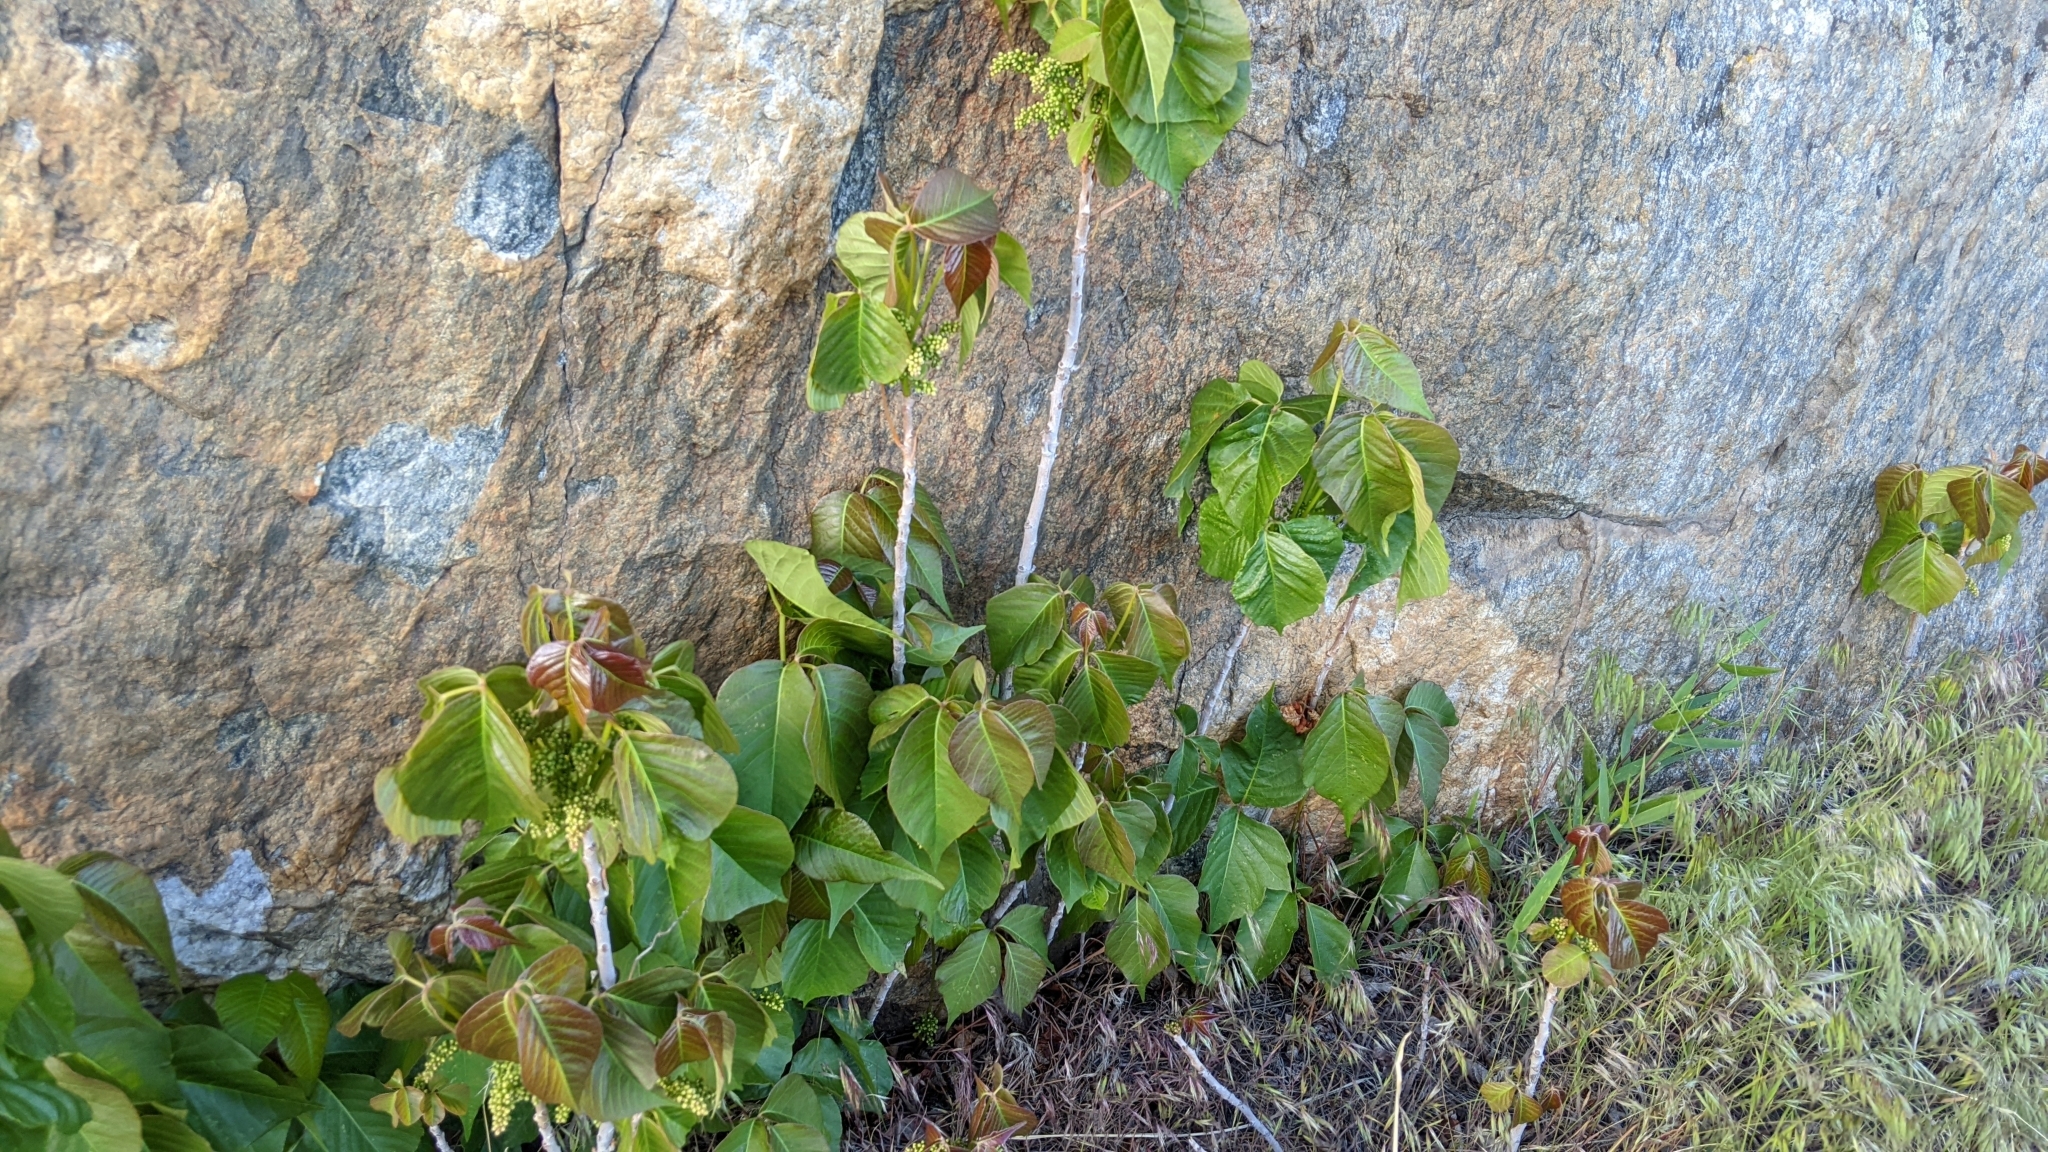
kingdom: Plantae
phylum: Tracheophyta
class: Magnoliopsida
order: Sapindales
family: Anacardiaceae
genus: Toxicodendron
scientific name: Toxicodendron rydbergii
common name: Rydberg's poison-ivy
